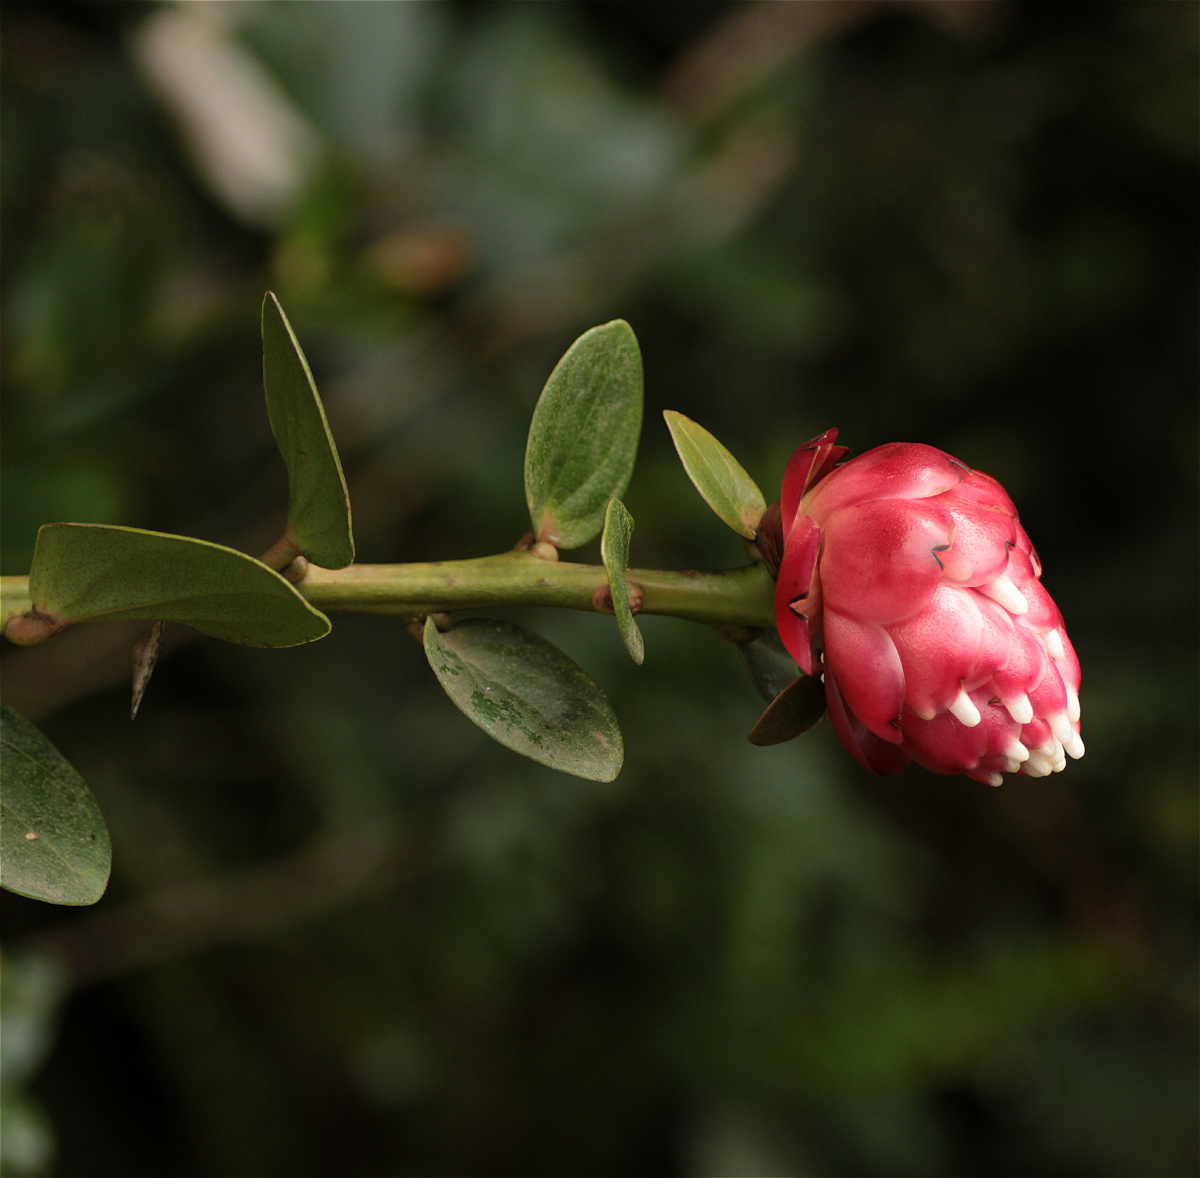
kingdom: Plantae
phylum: Tracheophyta
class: Magnoliopsida
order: Ericales
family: Ericaceae
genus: Cavendishia
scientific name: Cavendishia bracteata
